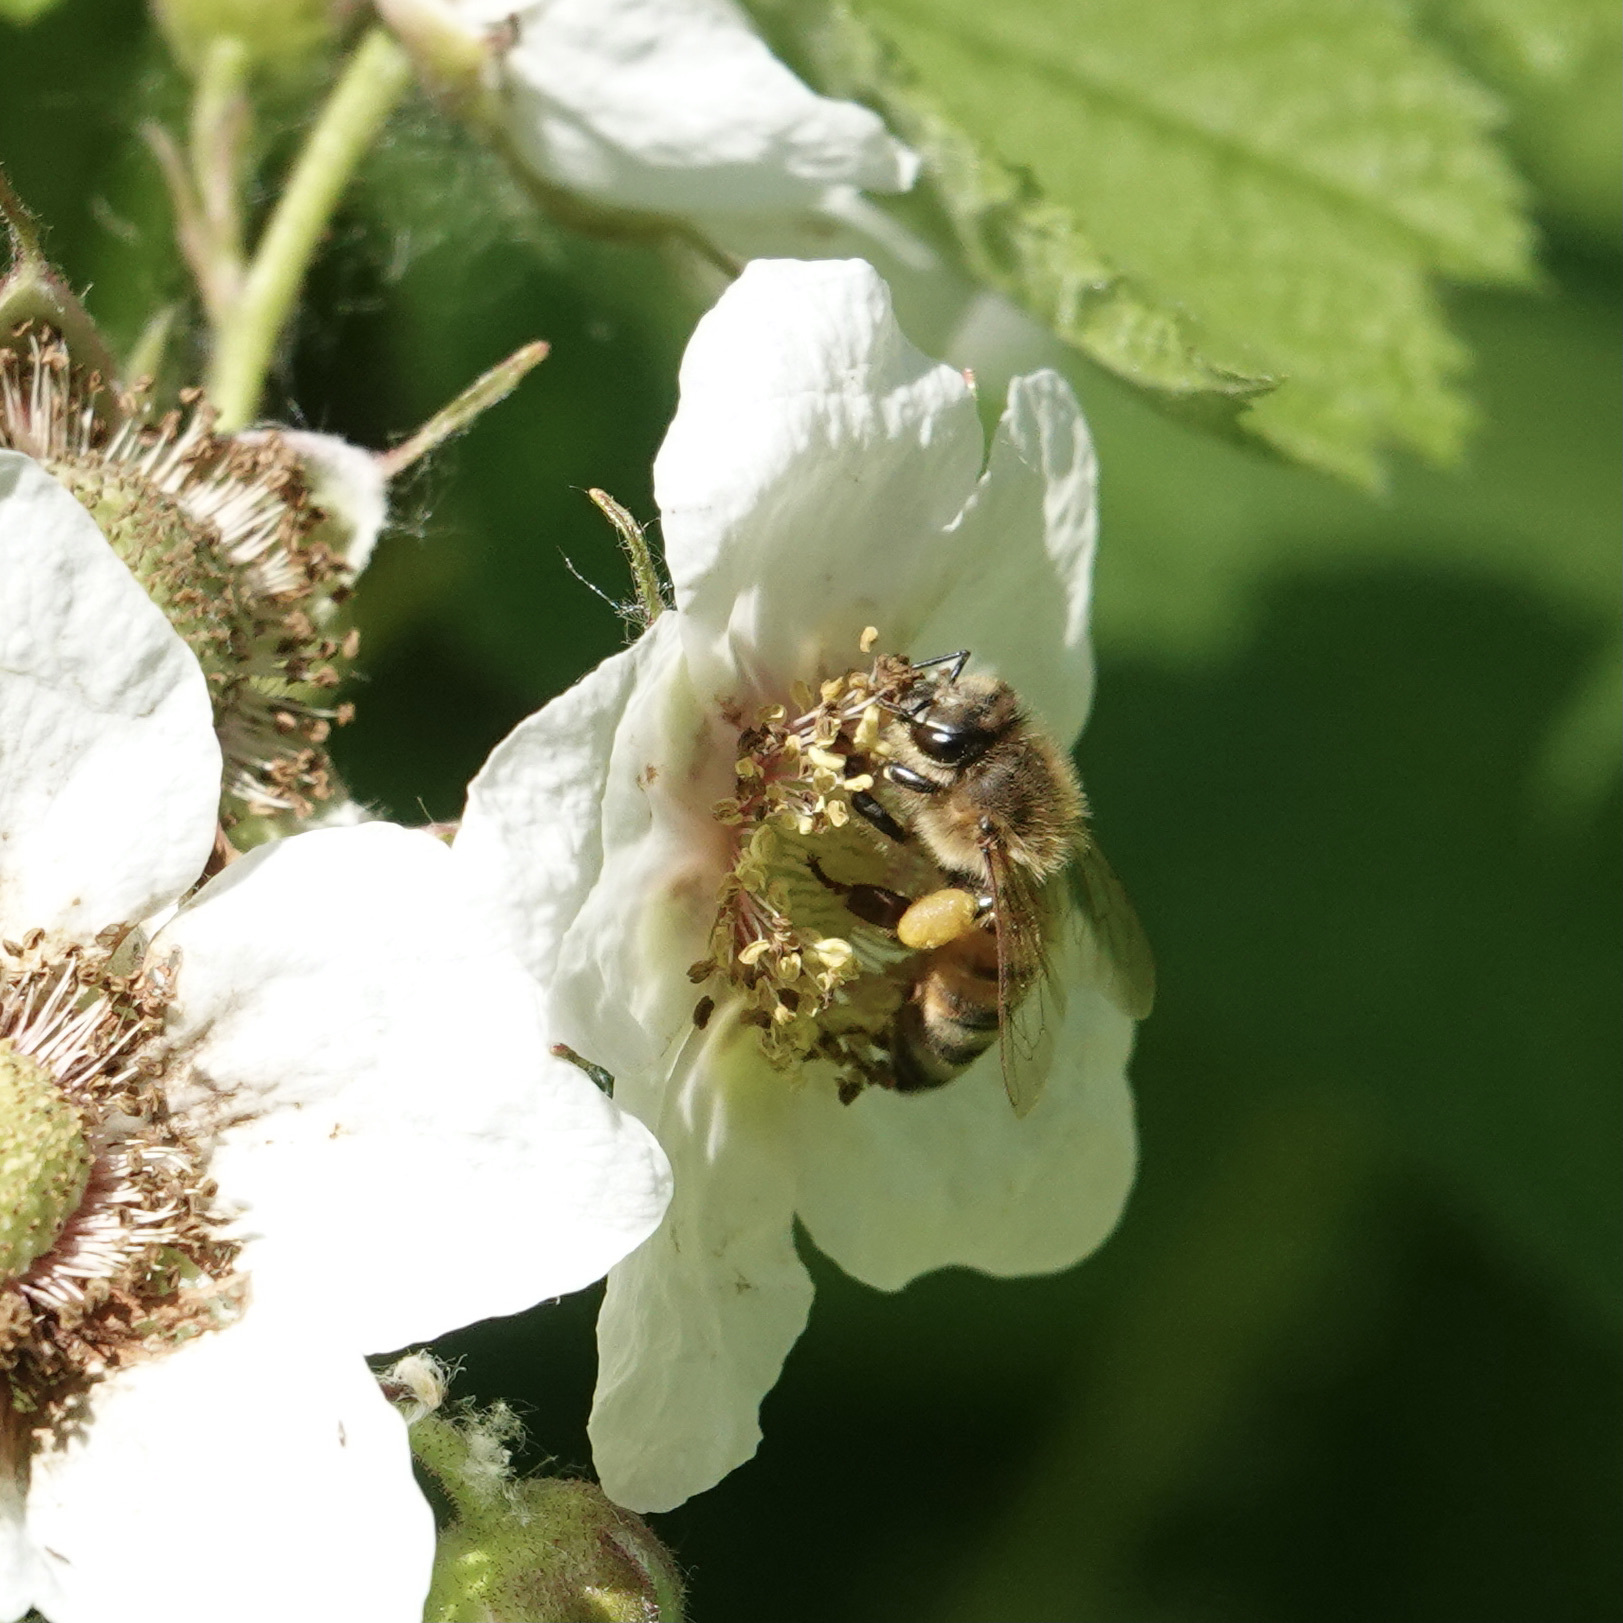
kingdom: Animalia
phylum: Arthropoda
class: Insecta
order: Hymenoptera
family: Apidae
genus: Apis
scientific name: Apis mellifera
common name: Honey bee
